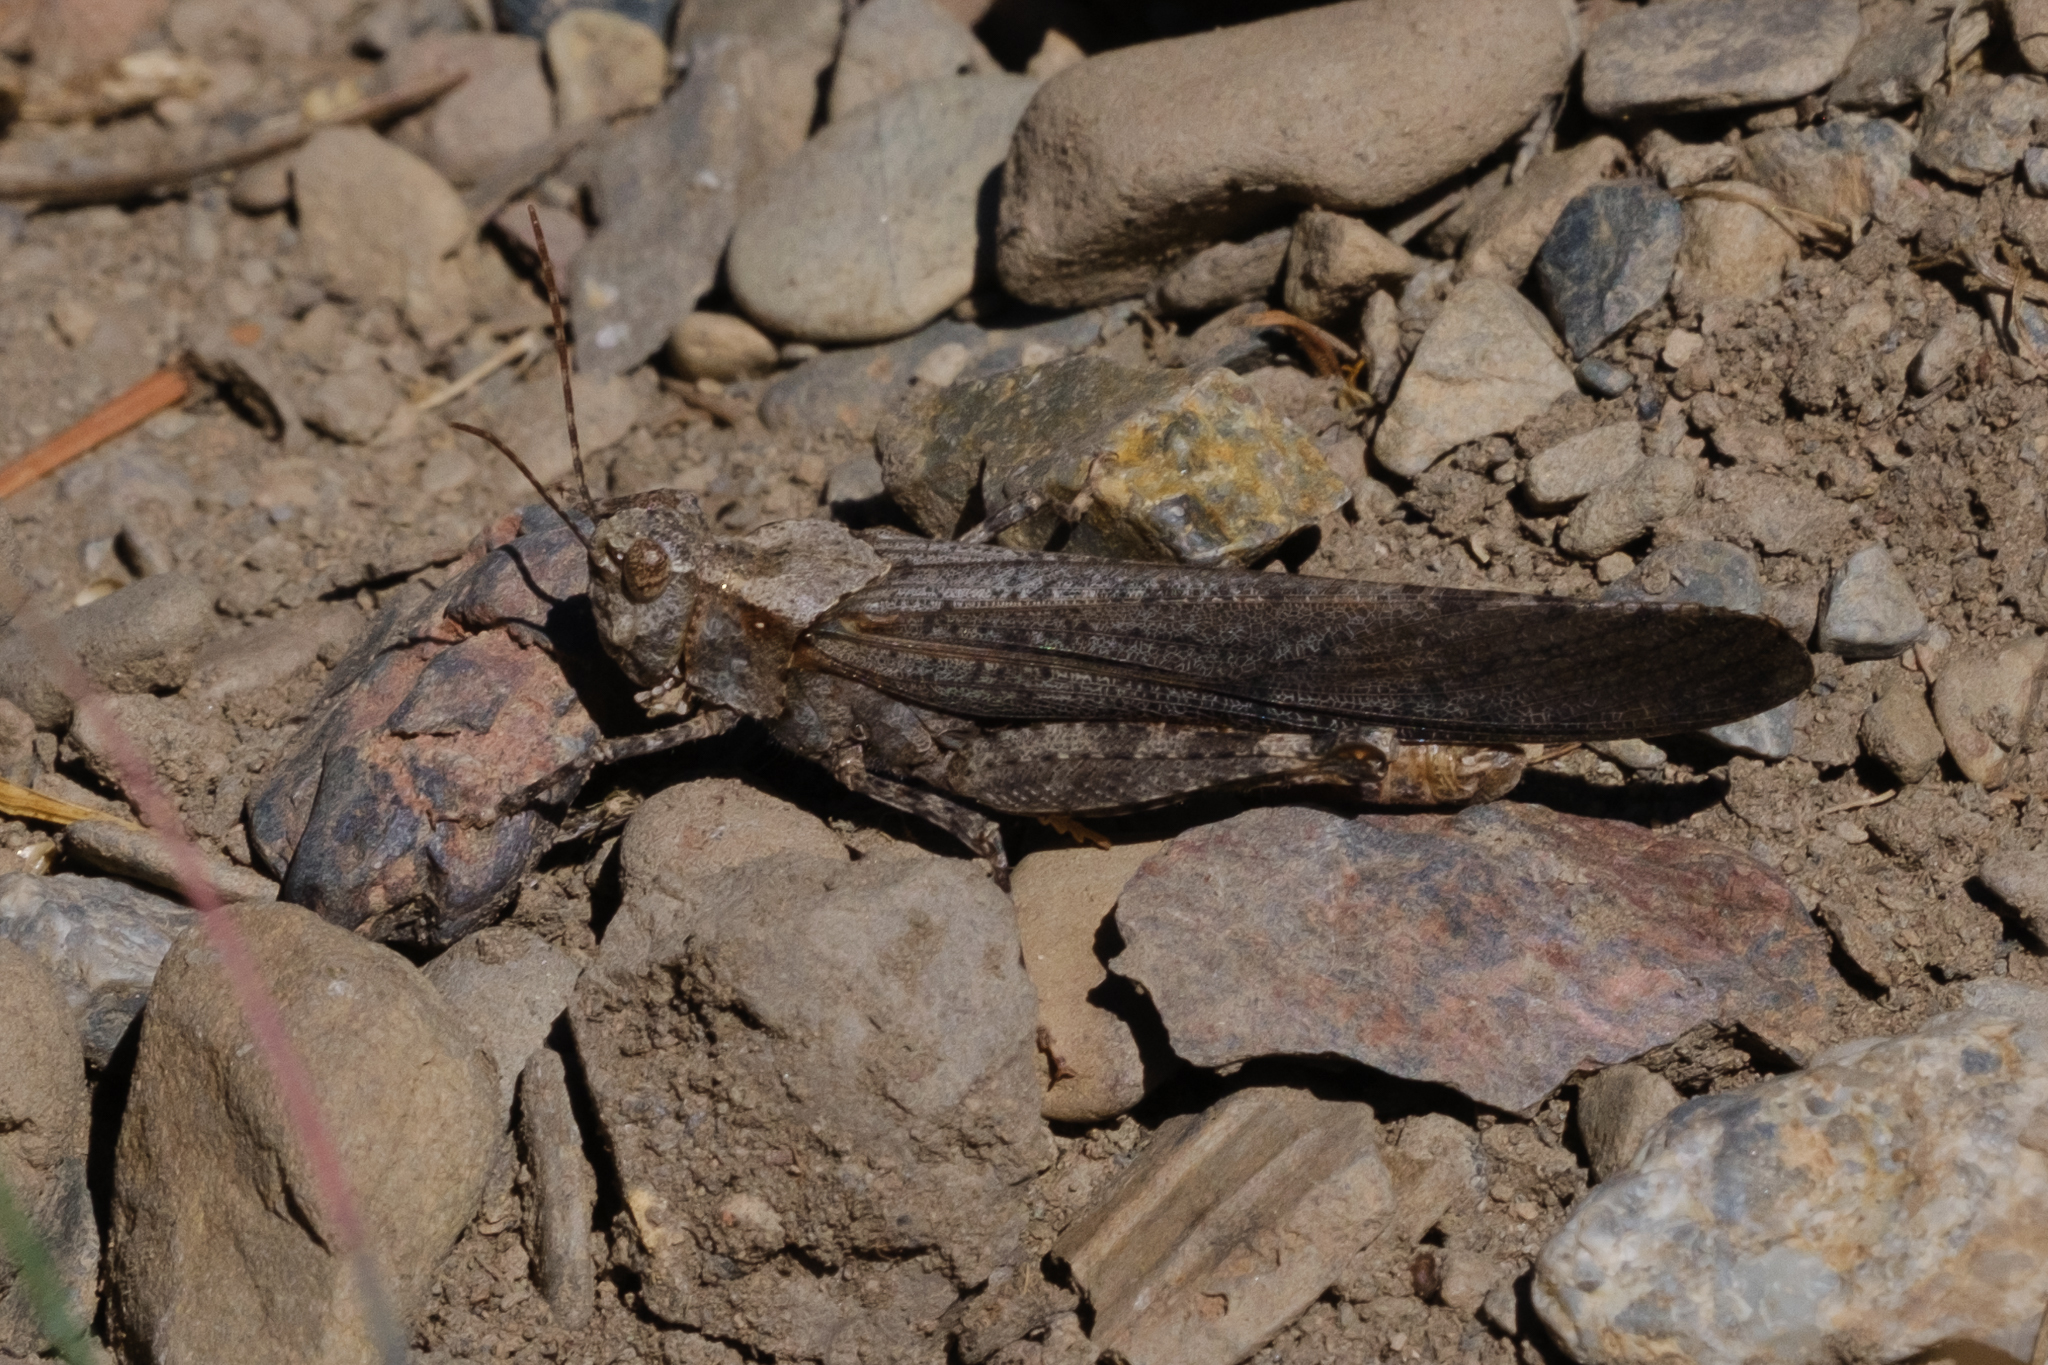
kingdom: Animalia
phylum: Arthropoda
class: Insecta
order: Orthoptera
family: Acrididae
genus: Trimerotropis
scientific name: Trimerotropis verruculata
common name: Crackling forest grasshopper
